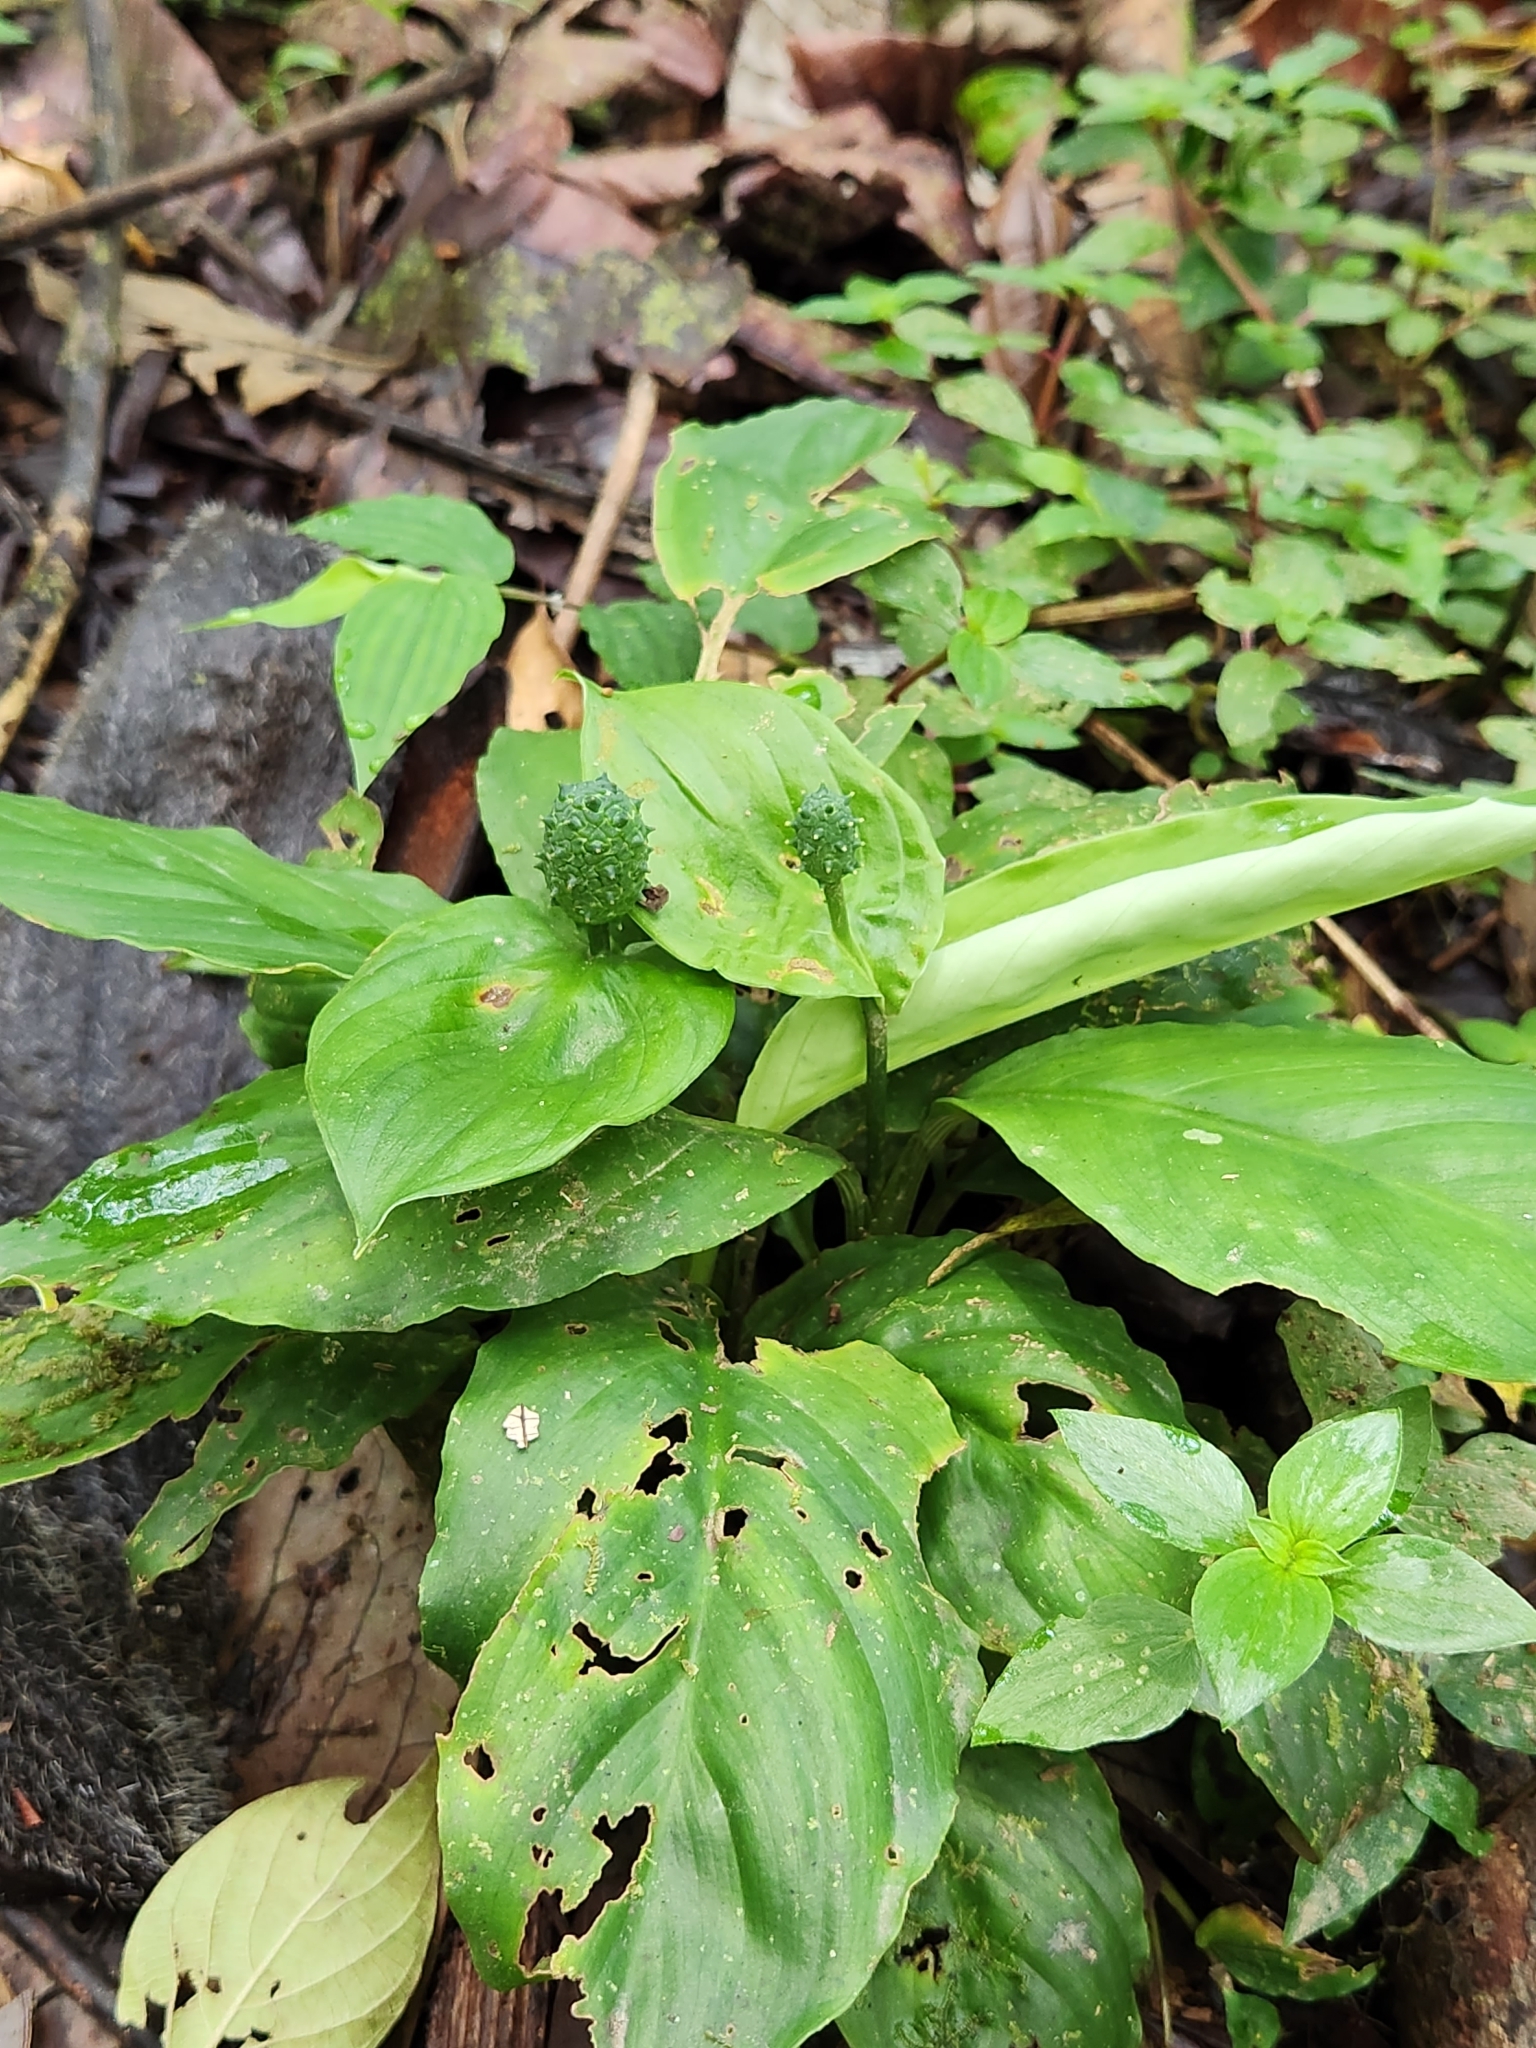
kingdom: Plantae
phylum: Tracheophyta
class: Liliopsida
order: Alismatales
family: Araceae
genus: Spathiphyllum
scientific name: Spathiphyllum dressleri
